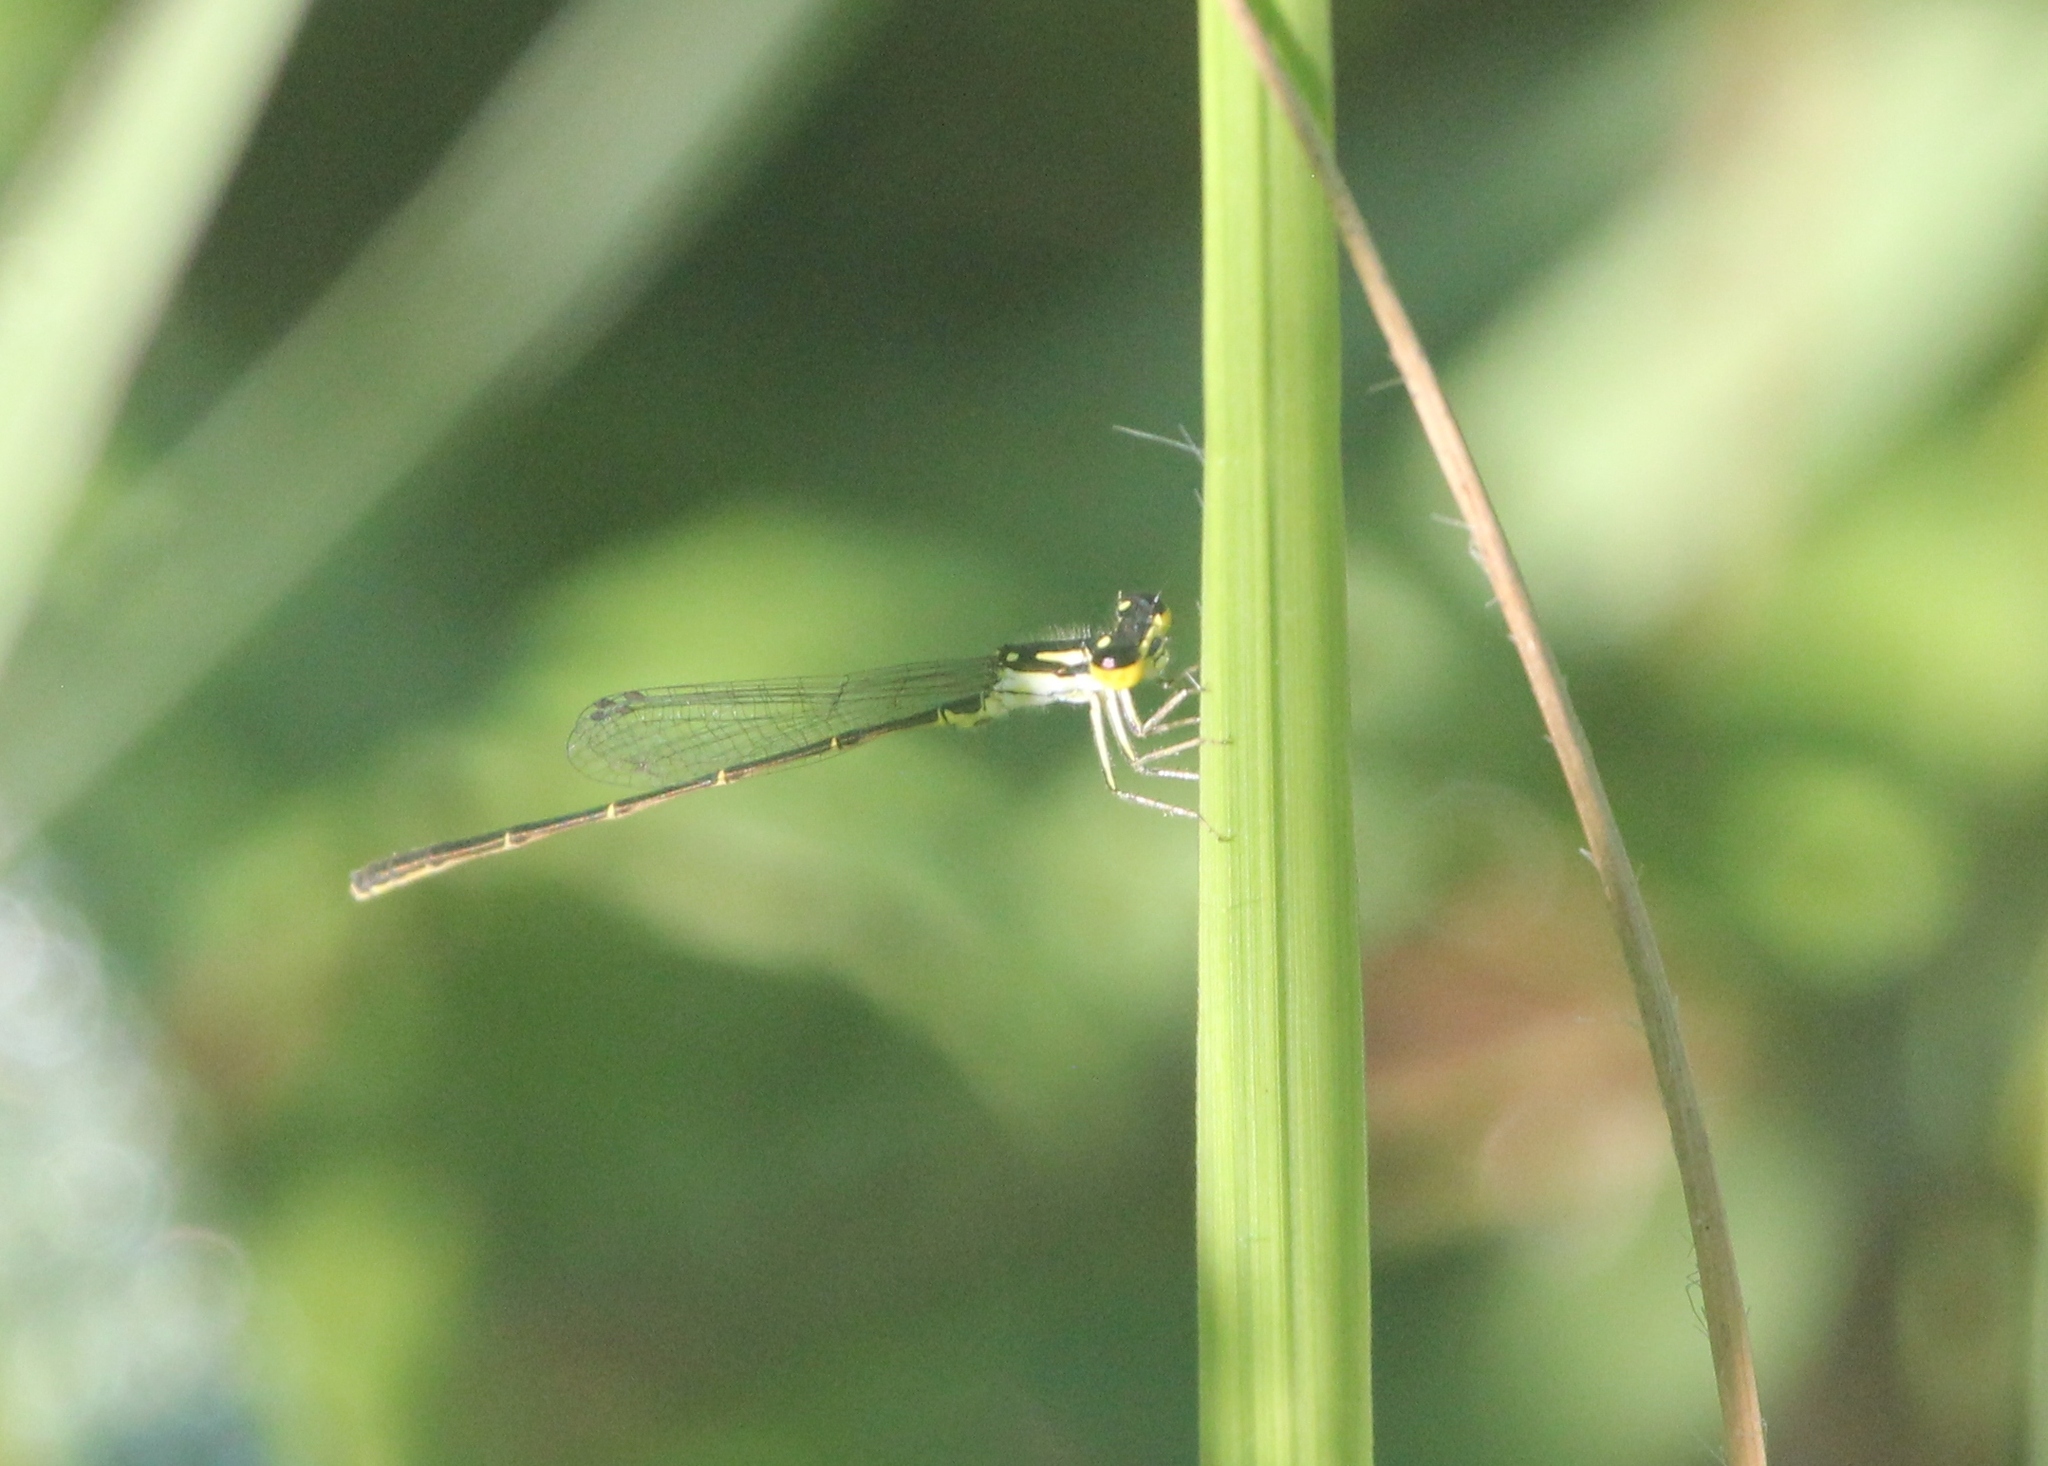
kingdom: Animalia
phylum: Arthropoda
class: Insecta
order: Odonata
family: Coenagrionidae
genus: Ischnura
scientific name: Ischnura posita
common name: Fragile forktail
